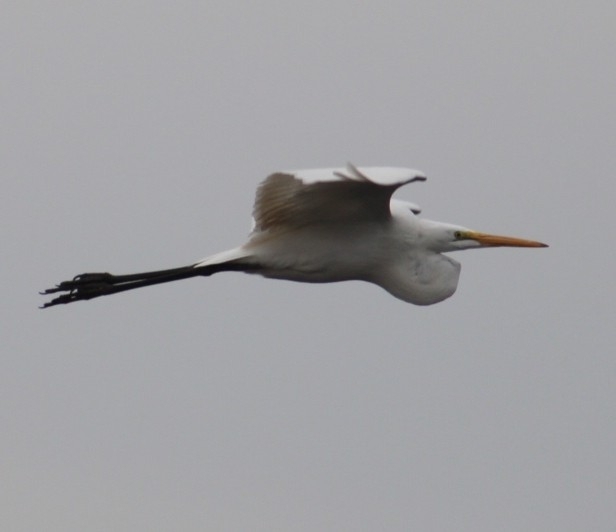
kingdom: Animalia
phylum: Chordata
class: Aves
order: Pelecaniformes
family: Ardeidae
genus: Ardea
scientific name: Ardea alba
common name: Great egret
